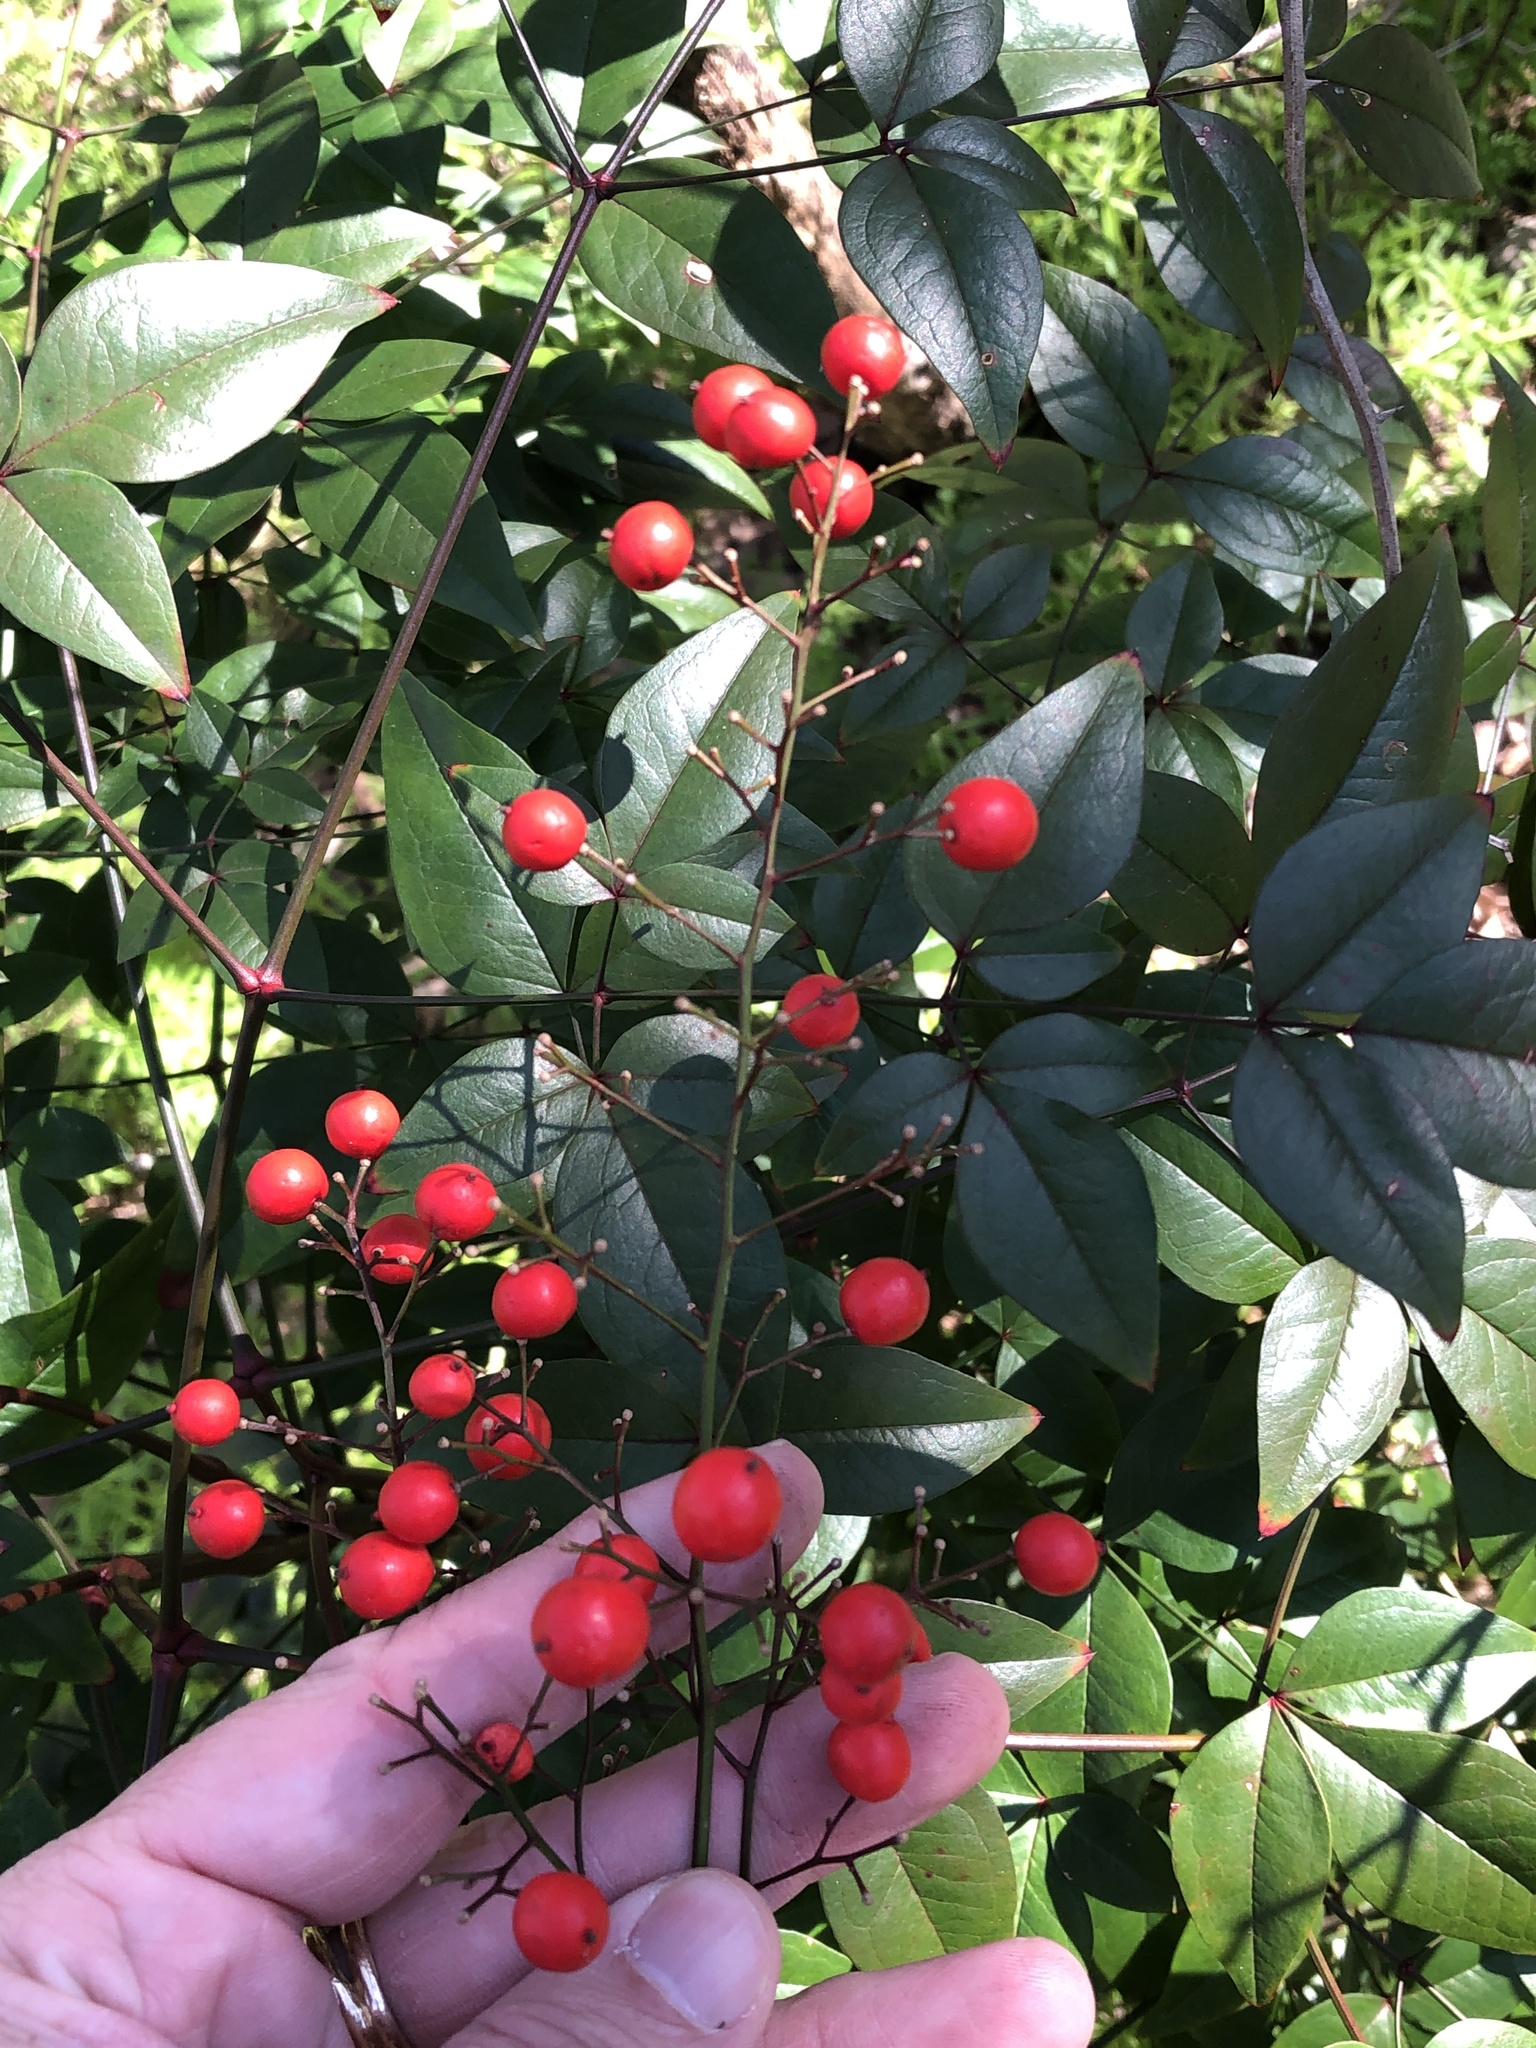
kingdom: Plantae
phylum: Tracheophyta
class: Magnoliopsida
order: Ranunculales
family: Berberidaceae
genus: Nandina
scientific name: Nandina domestica
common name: Sacred bamboo
